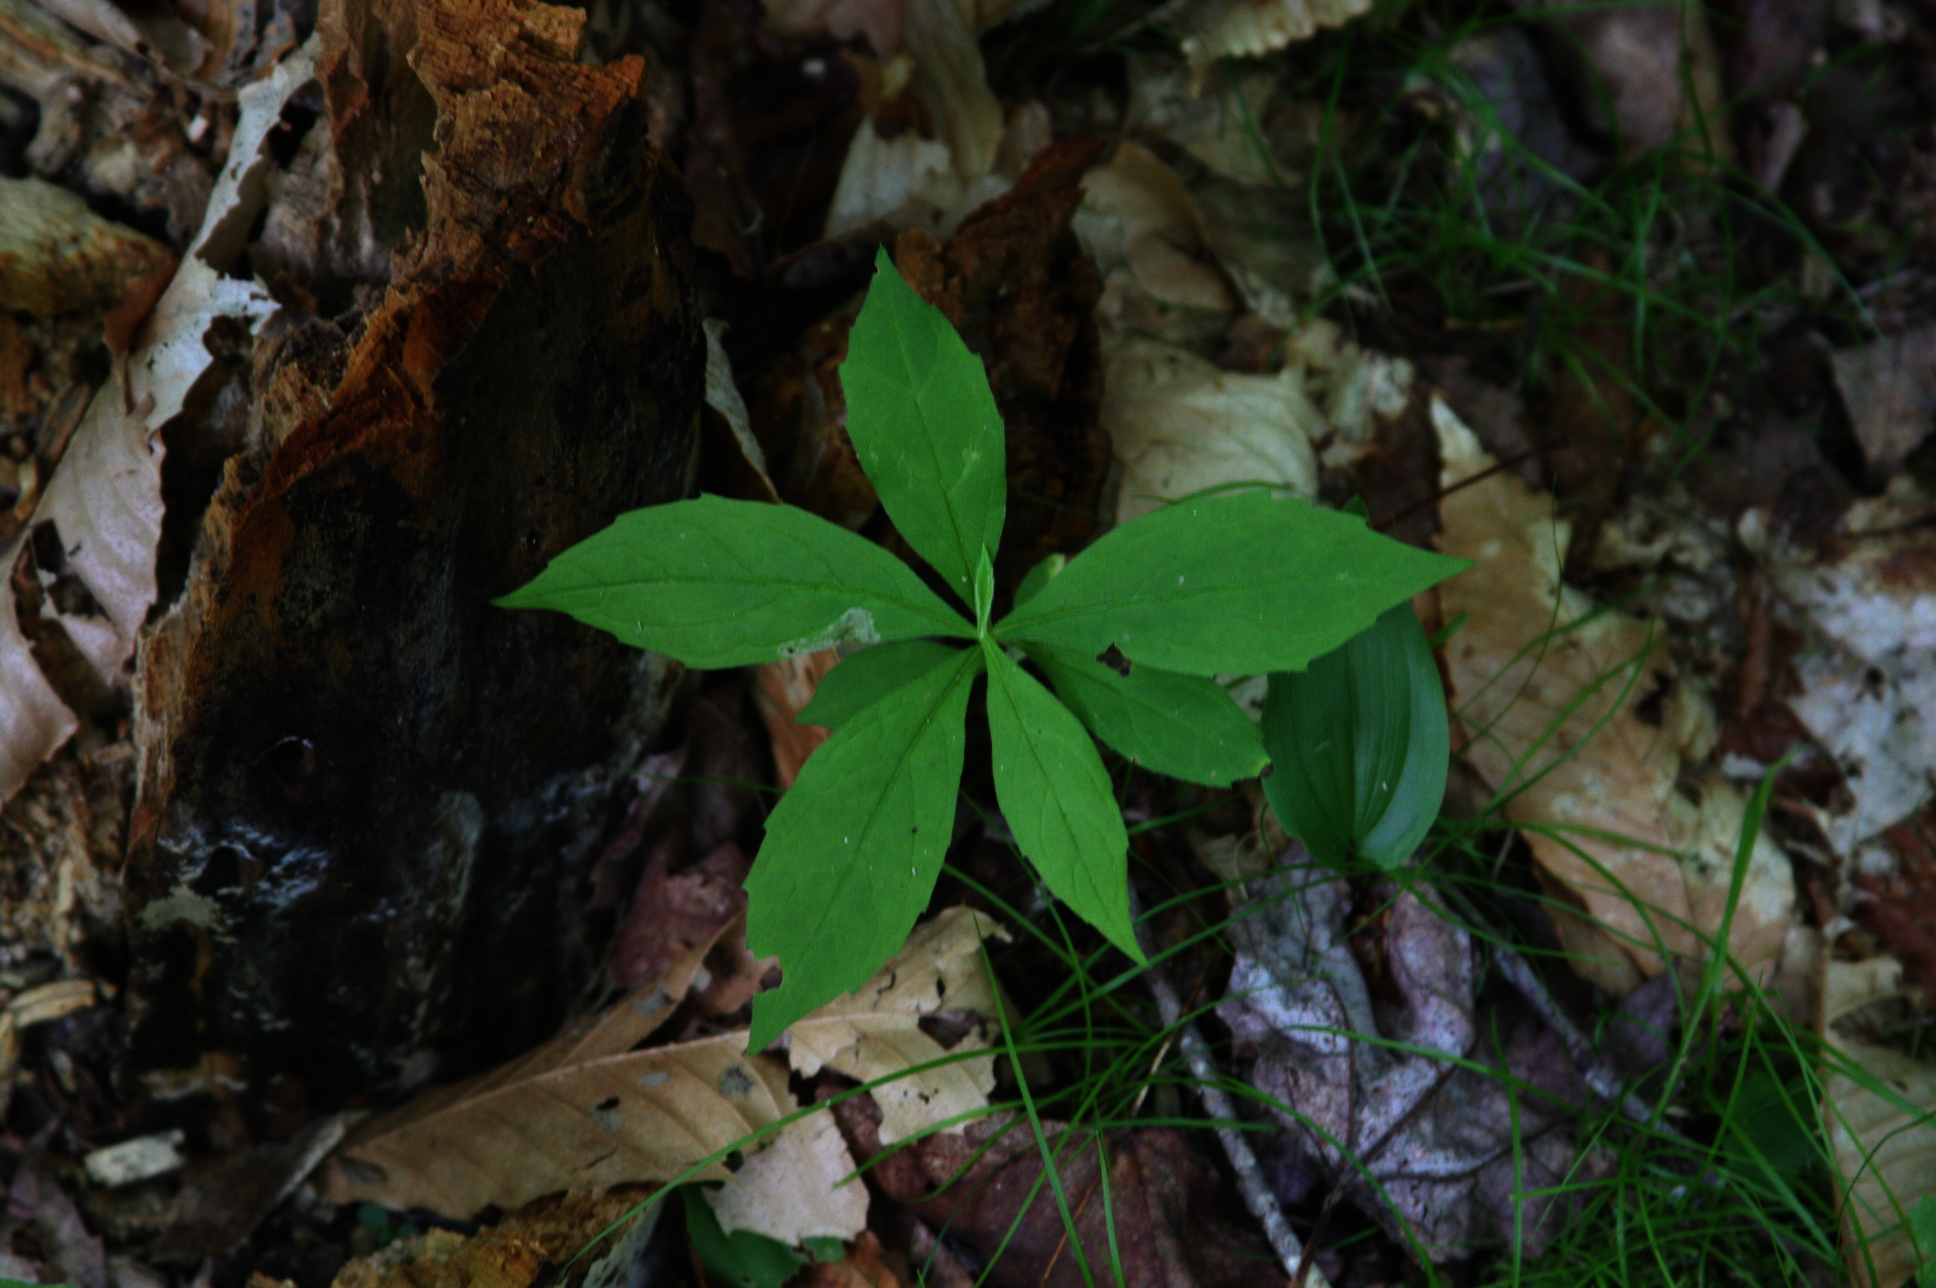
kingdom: Plantae
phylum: Tracheophyta
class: Magnoliopsida
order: Asterales
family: Asteraceae
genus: Oclemena
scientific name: Oclemena acuminata
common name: Mountain aster
